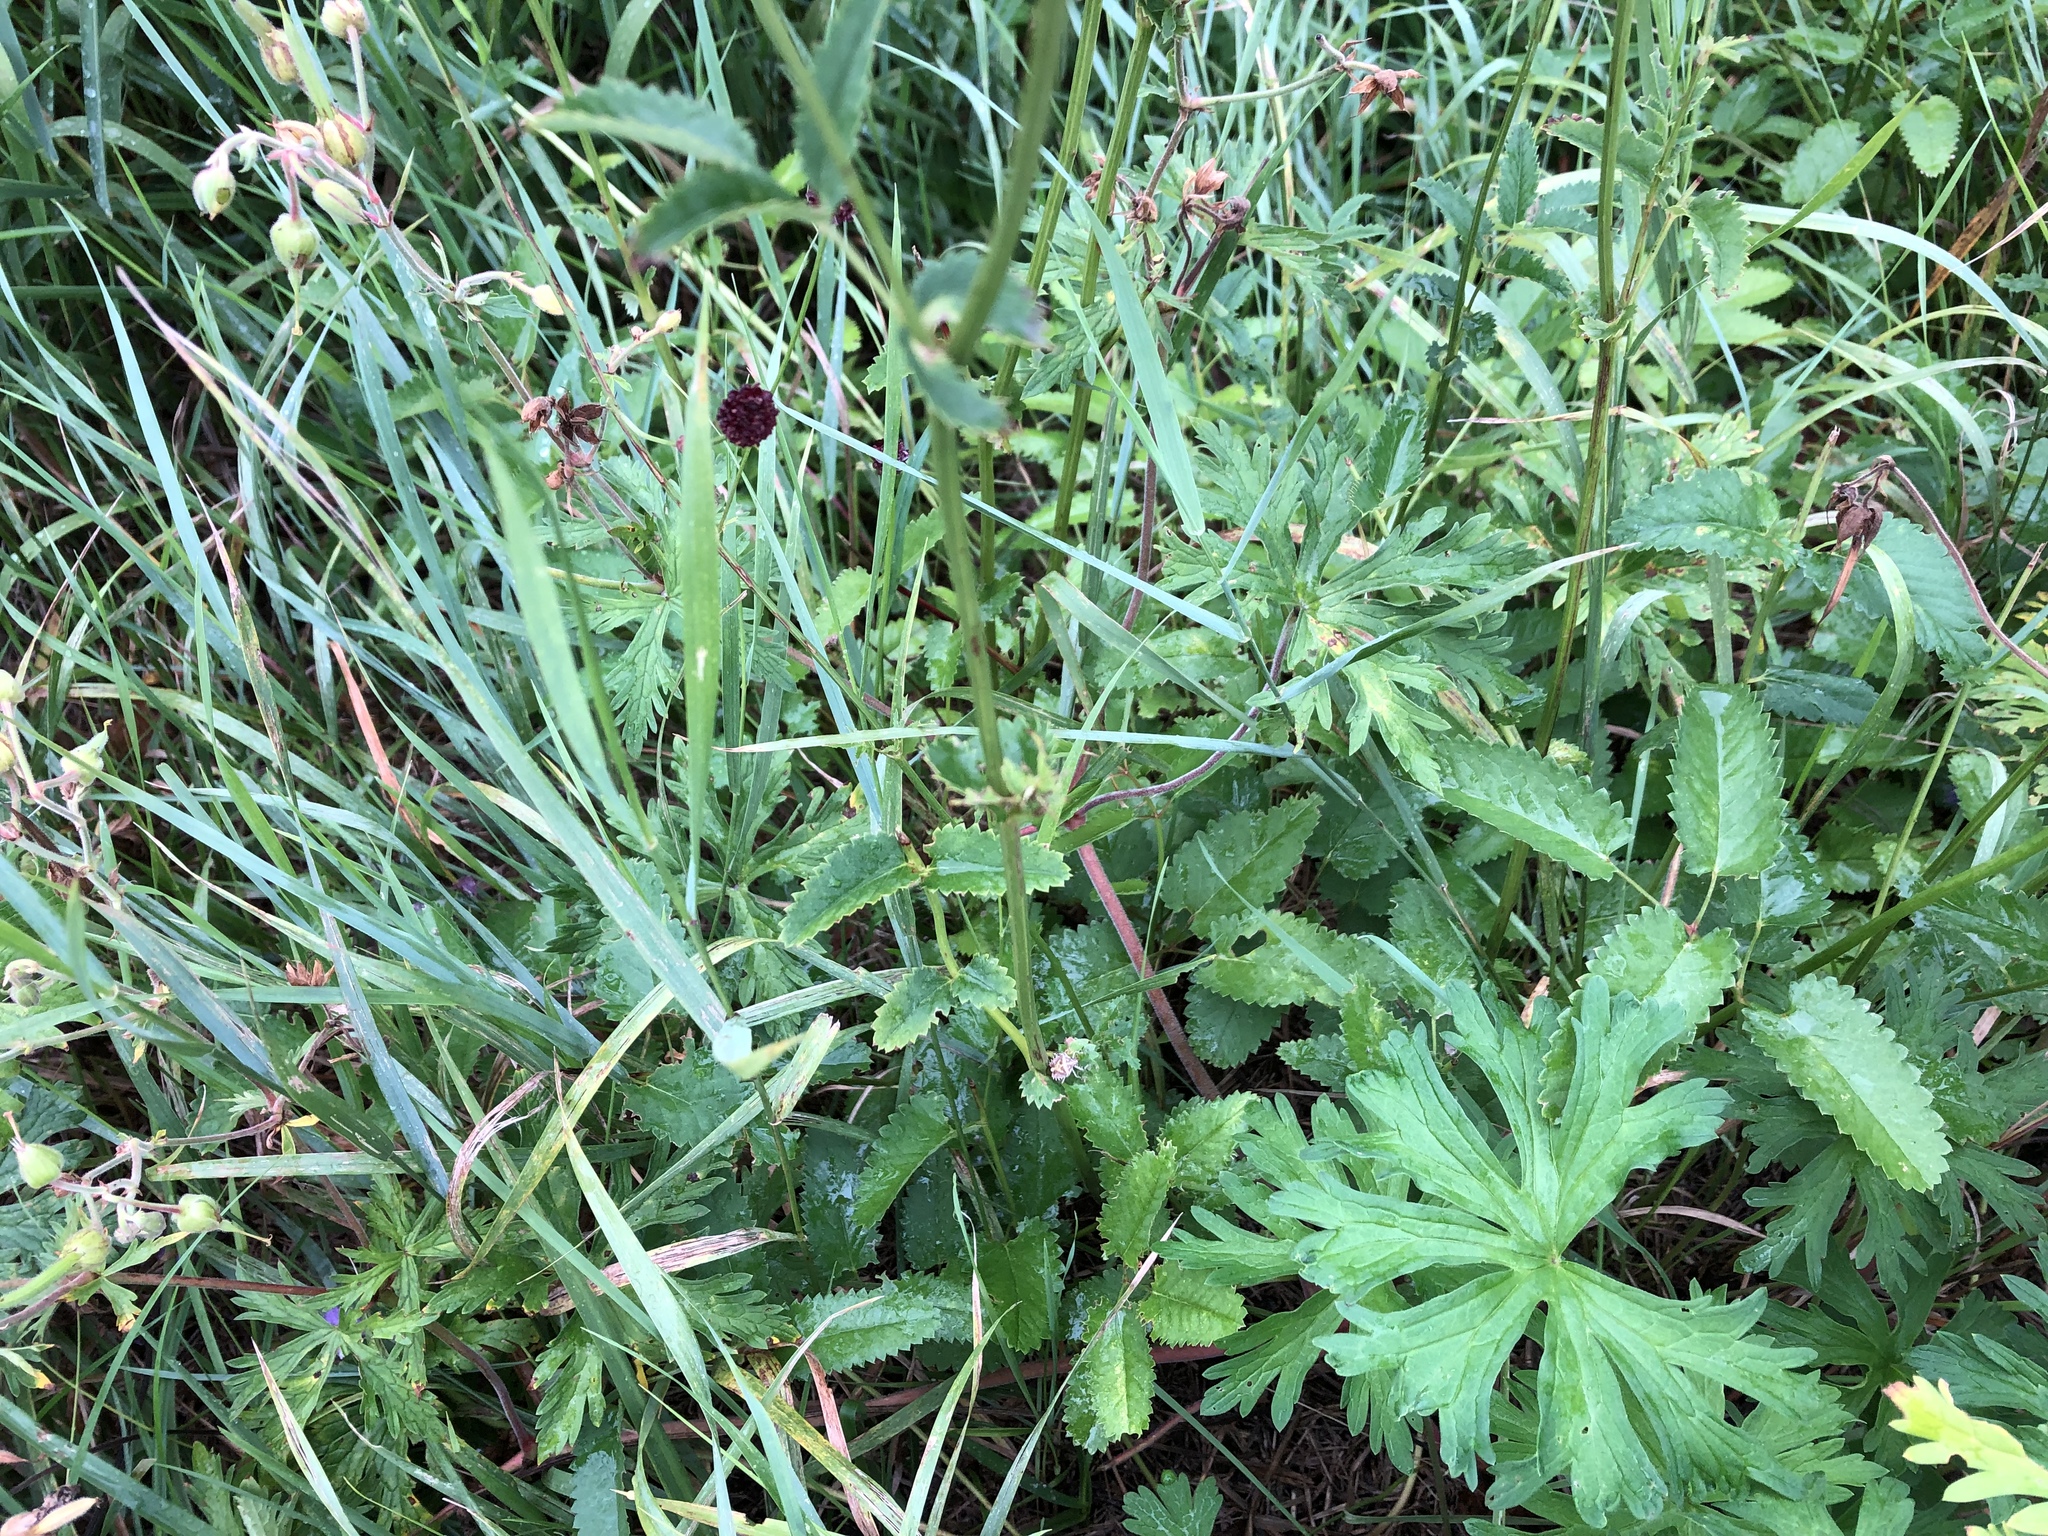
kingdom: Plantae
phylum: Tracheophyta
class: Magnoliopsida
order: Rosales
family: Rosaceae
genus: Sanguisorba
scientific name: Sanguisorba officinalis
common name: Great burnet
